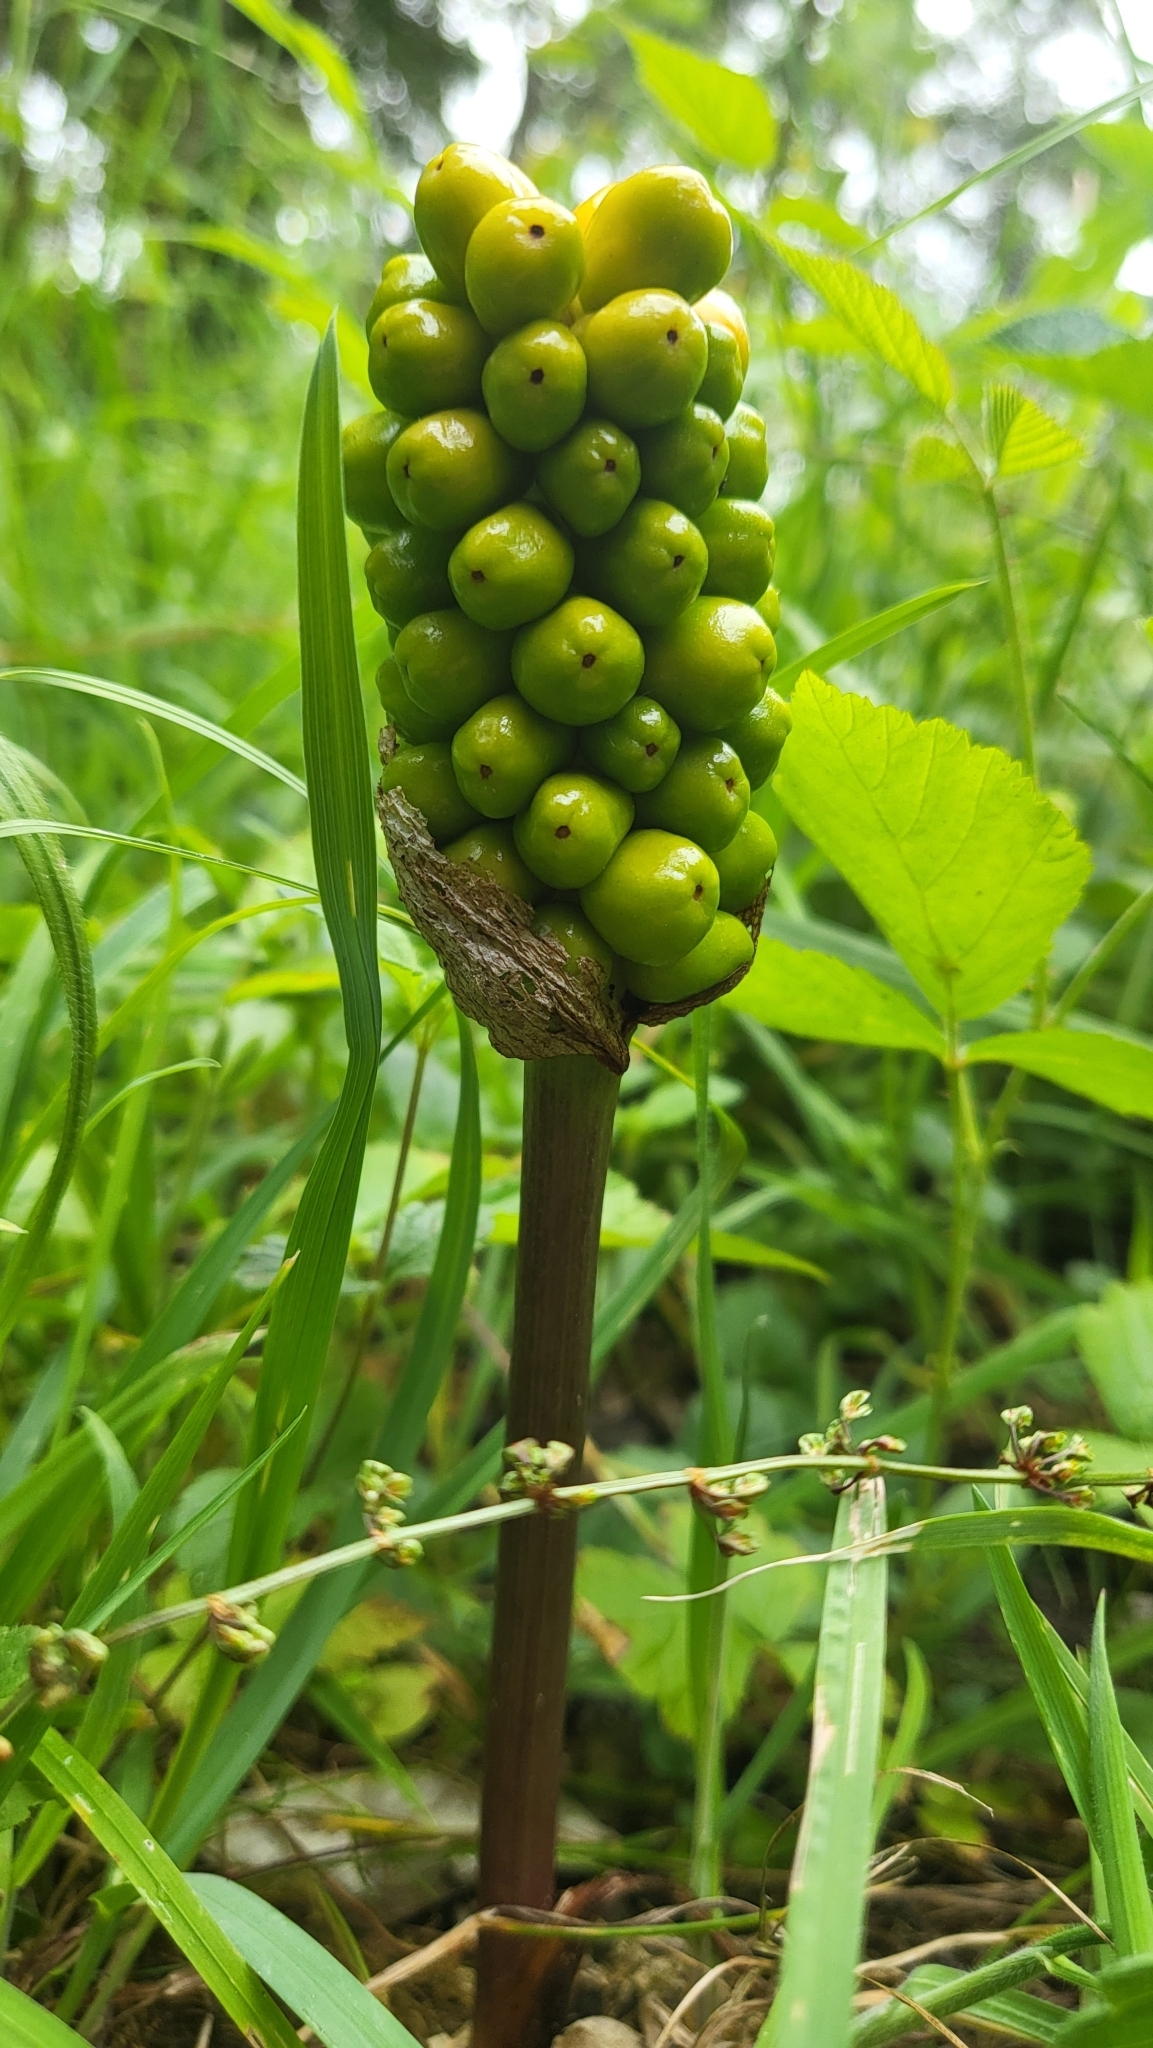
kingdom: Plantae
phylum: Tracheophyta
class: Liliopsida
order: Alismatales
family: Araceae
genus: Arum
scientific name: Arum maculatum
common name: Lords-and-ladies
